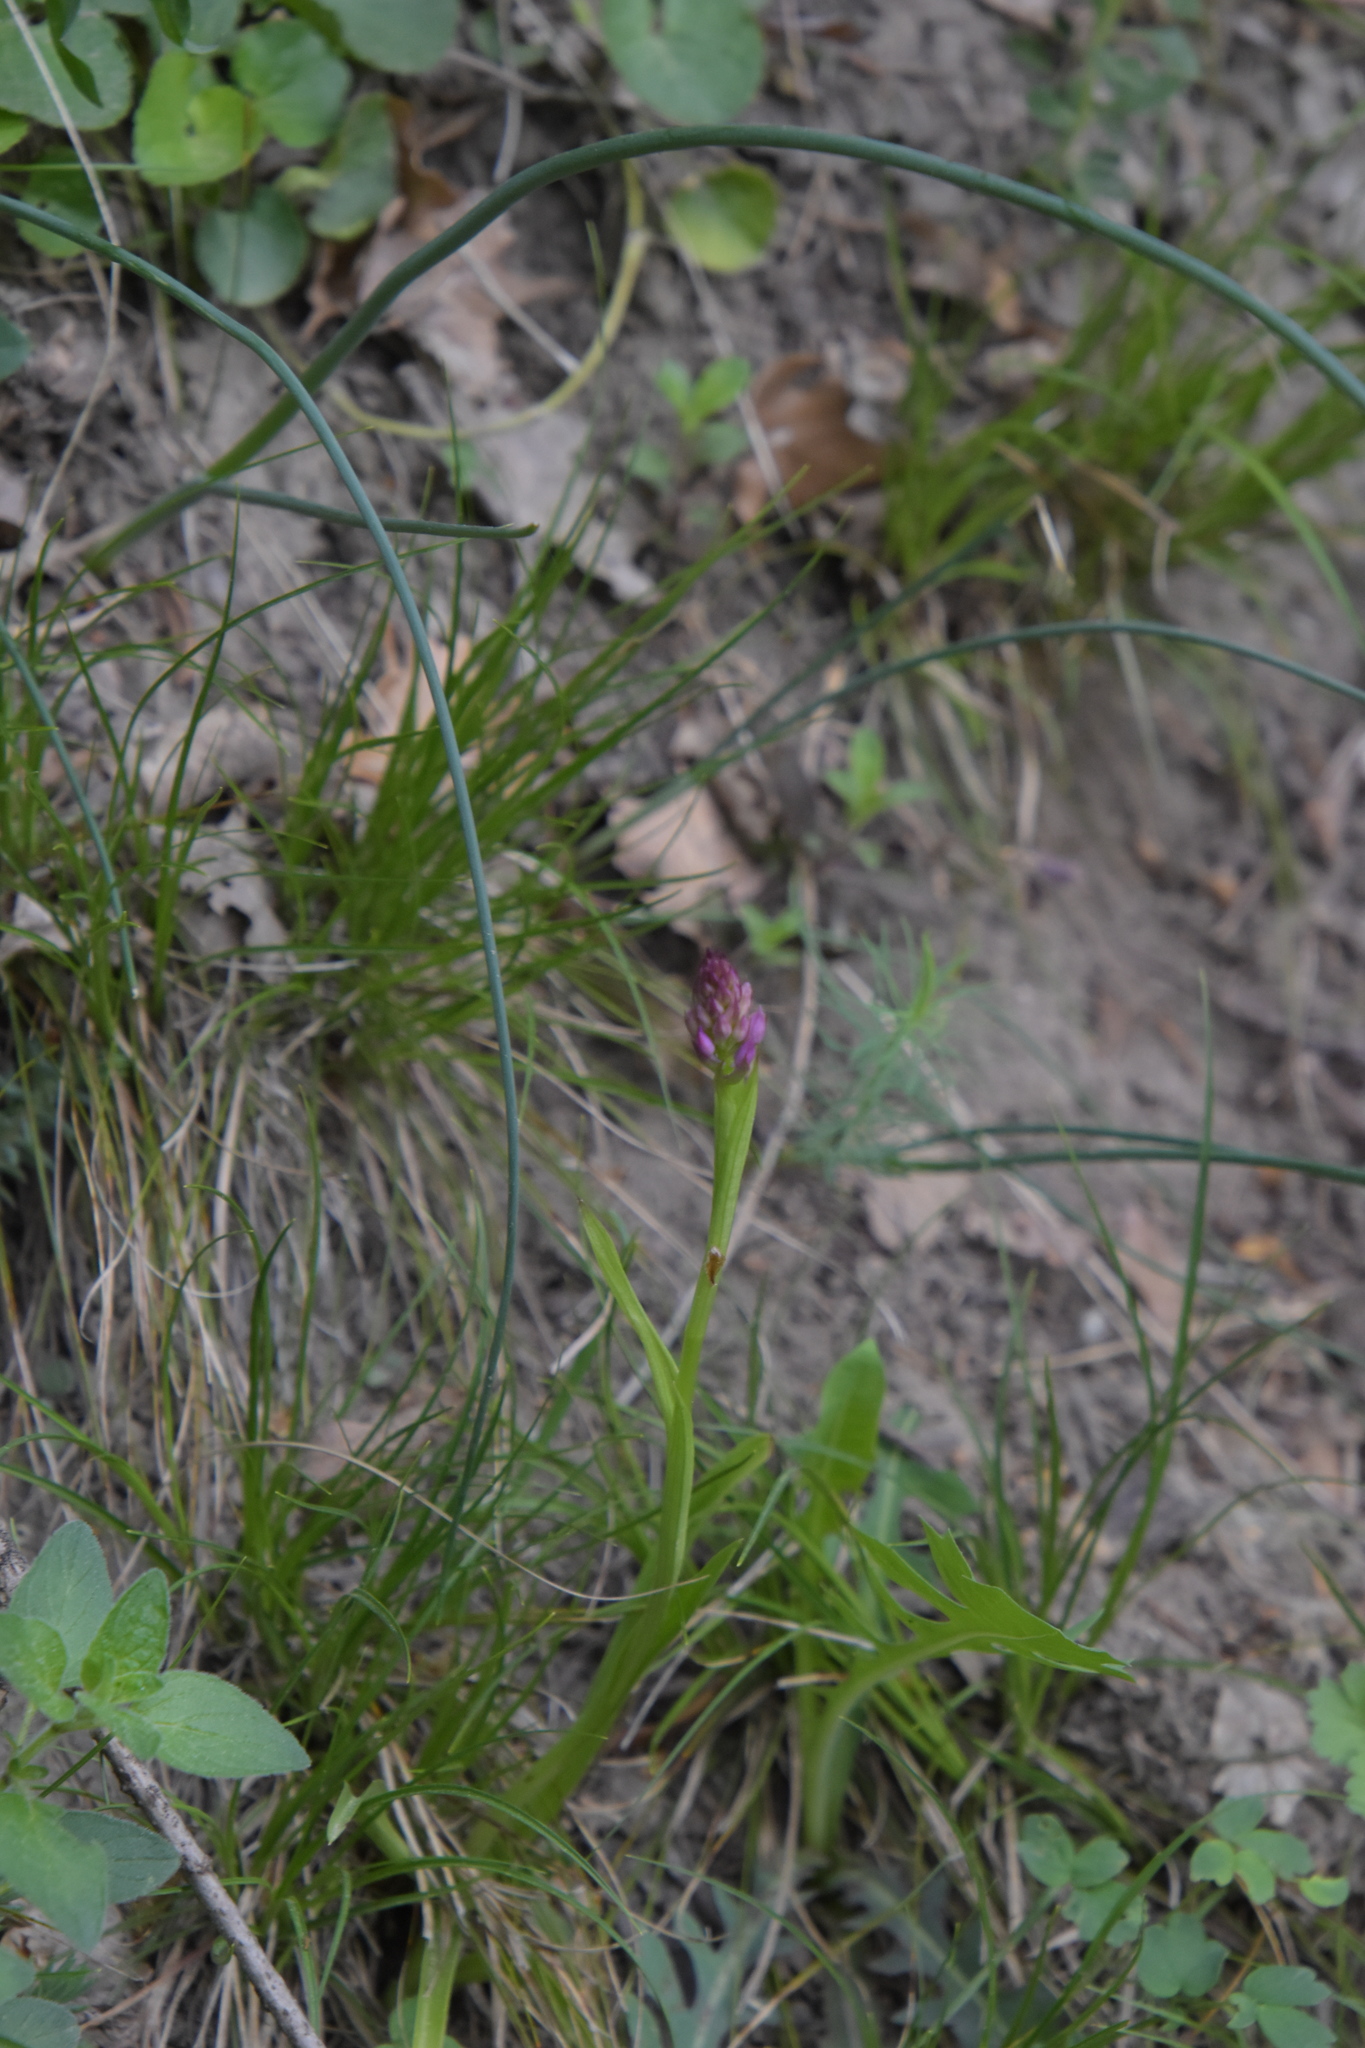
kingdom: Plantae
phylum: Tracheophyta
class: Liliopsida
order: Asparagales
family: Orchidaceae
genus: Anacamptis
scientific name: Anacamptis pyramidalis
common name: Pyramidal orchid
